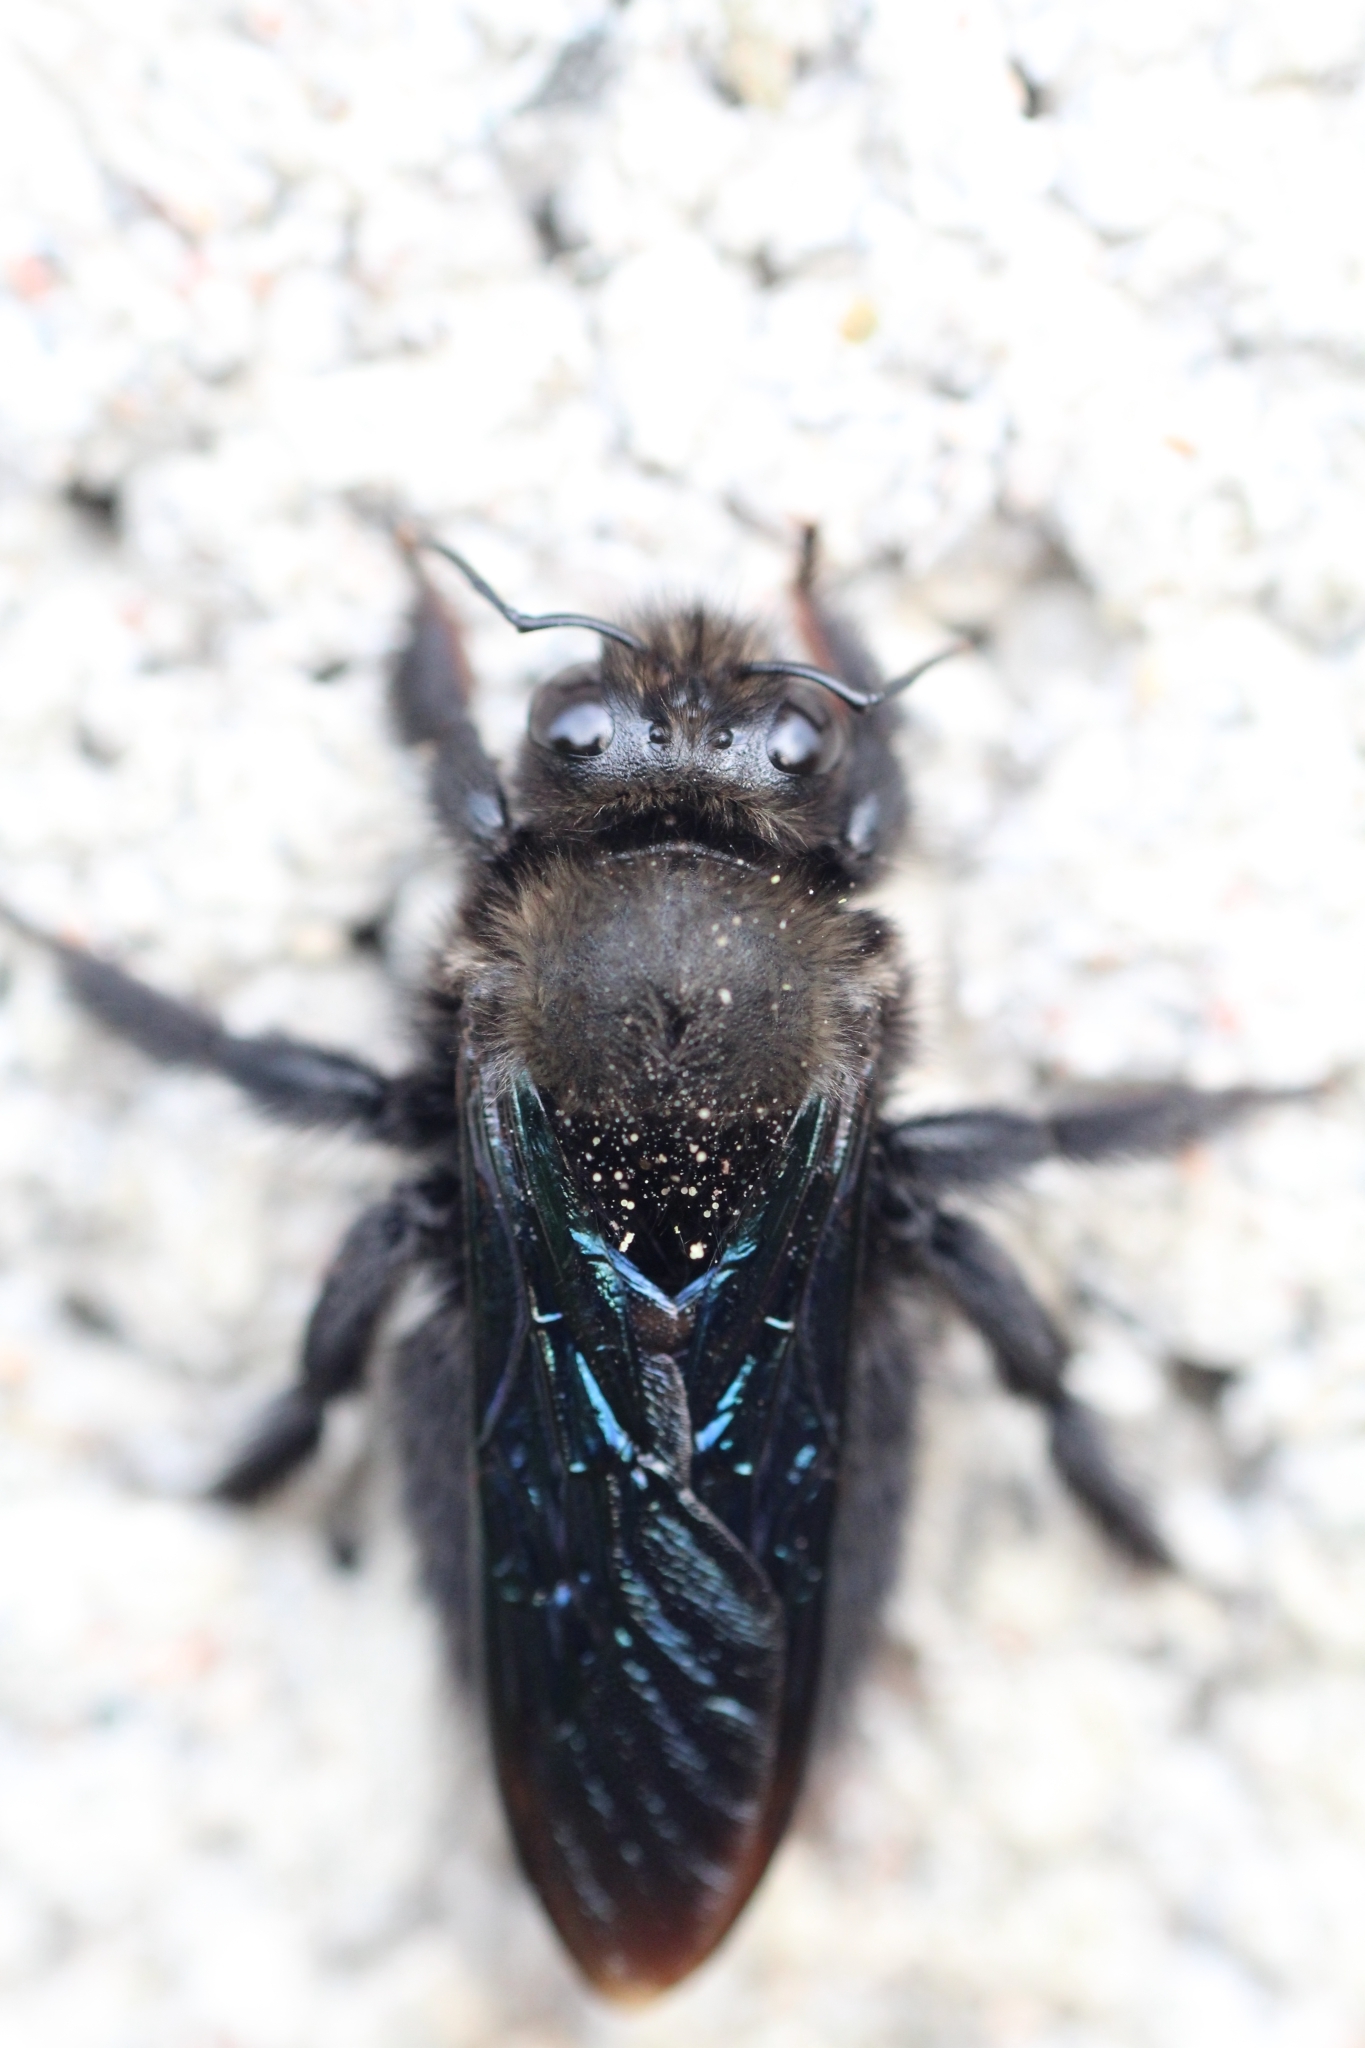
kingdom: Animalia
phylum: Arthropoda
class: Insecta
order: Hymenoptera
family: Apidae
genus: Xylocopa
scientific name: Xylocopa violacea
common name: Violet carpenter bee
